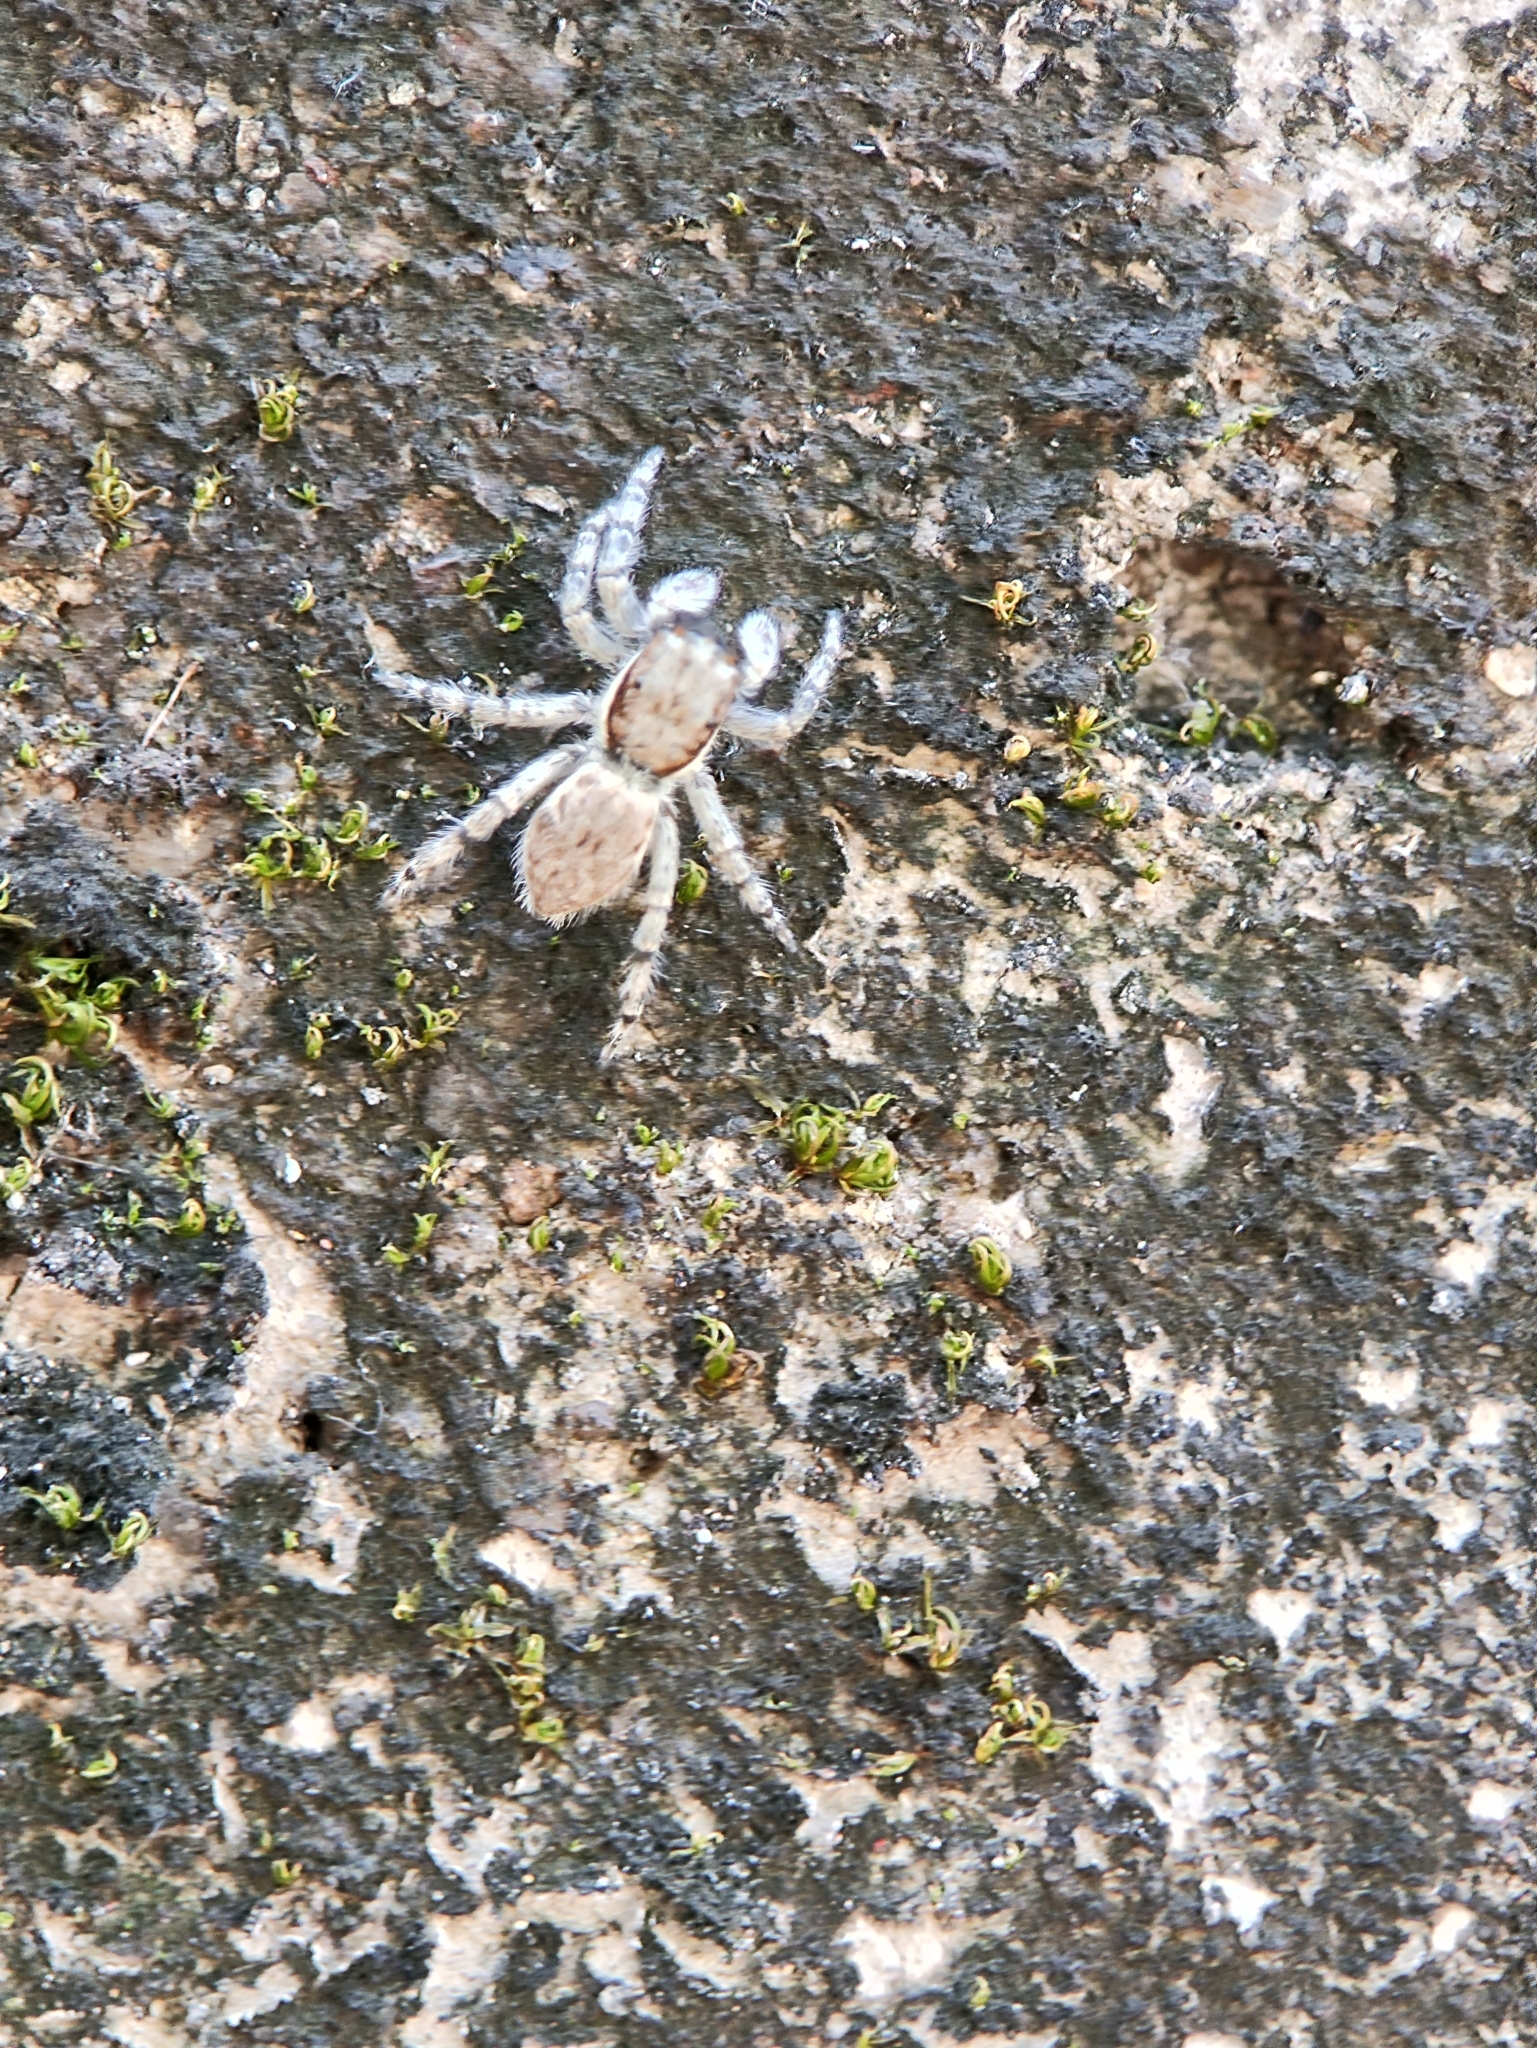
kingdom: Animalia
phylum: Arthropoda
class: Arachnida
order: Araneae
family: Salticidae
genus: Menemerus
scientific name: Menemerus bivittatus
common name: Gray wall jumper
